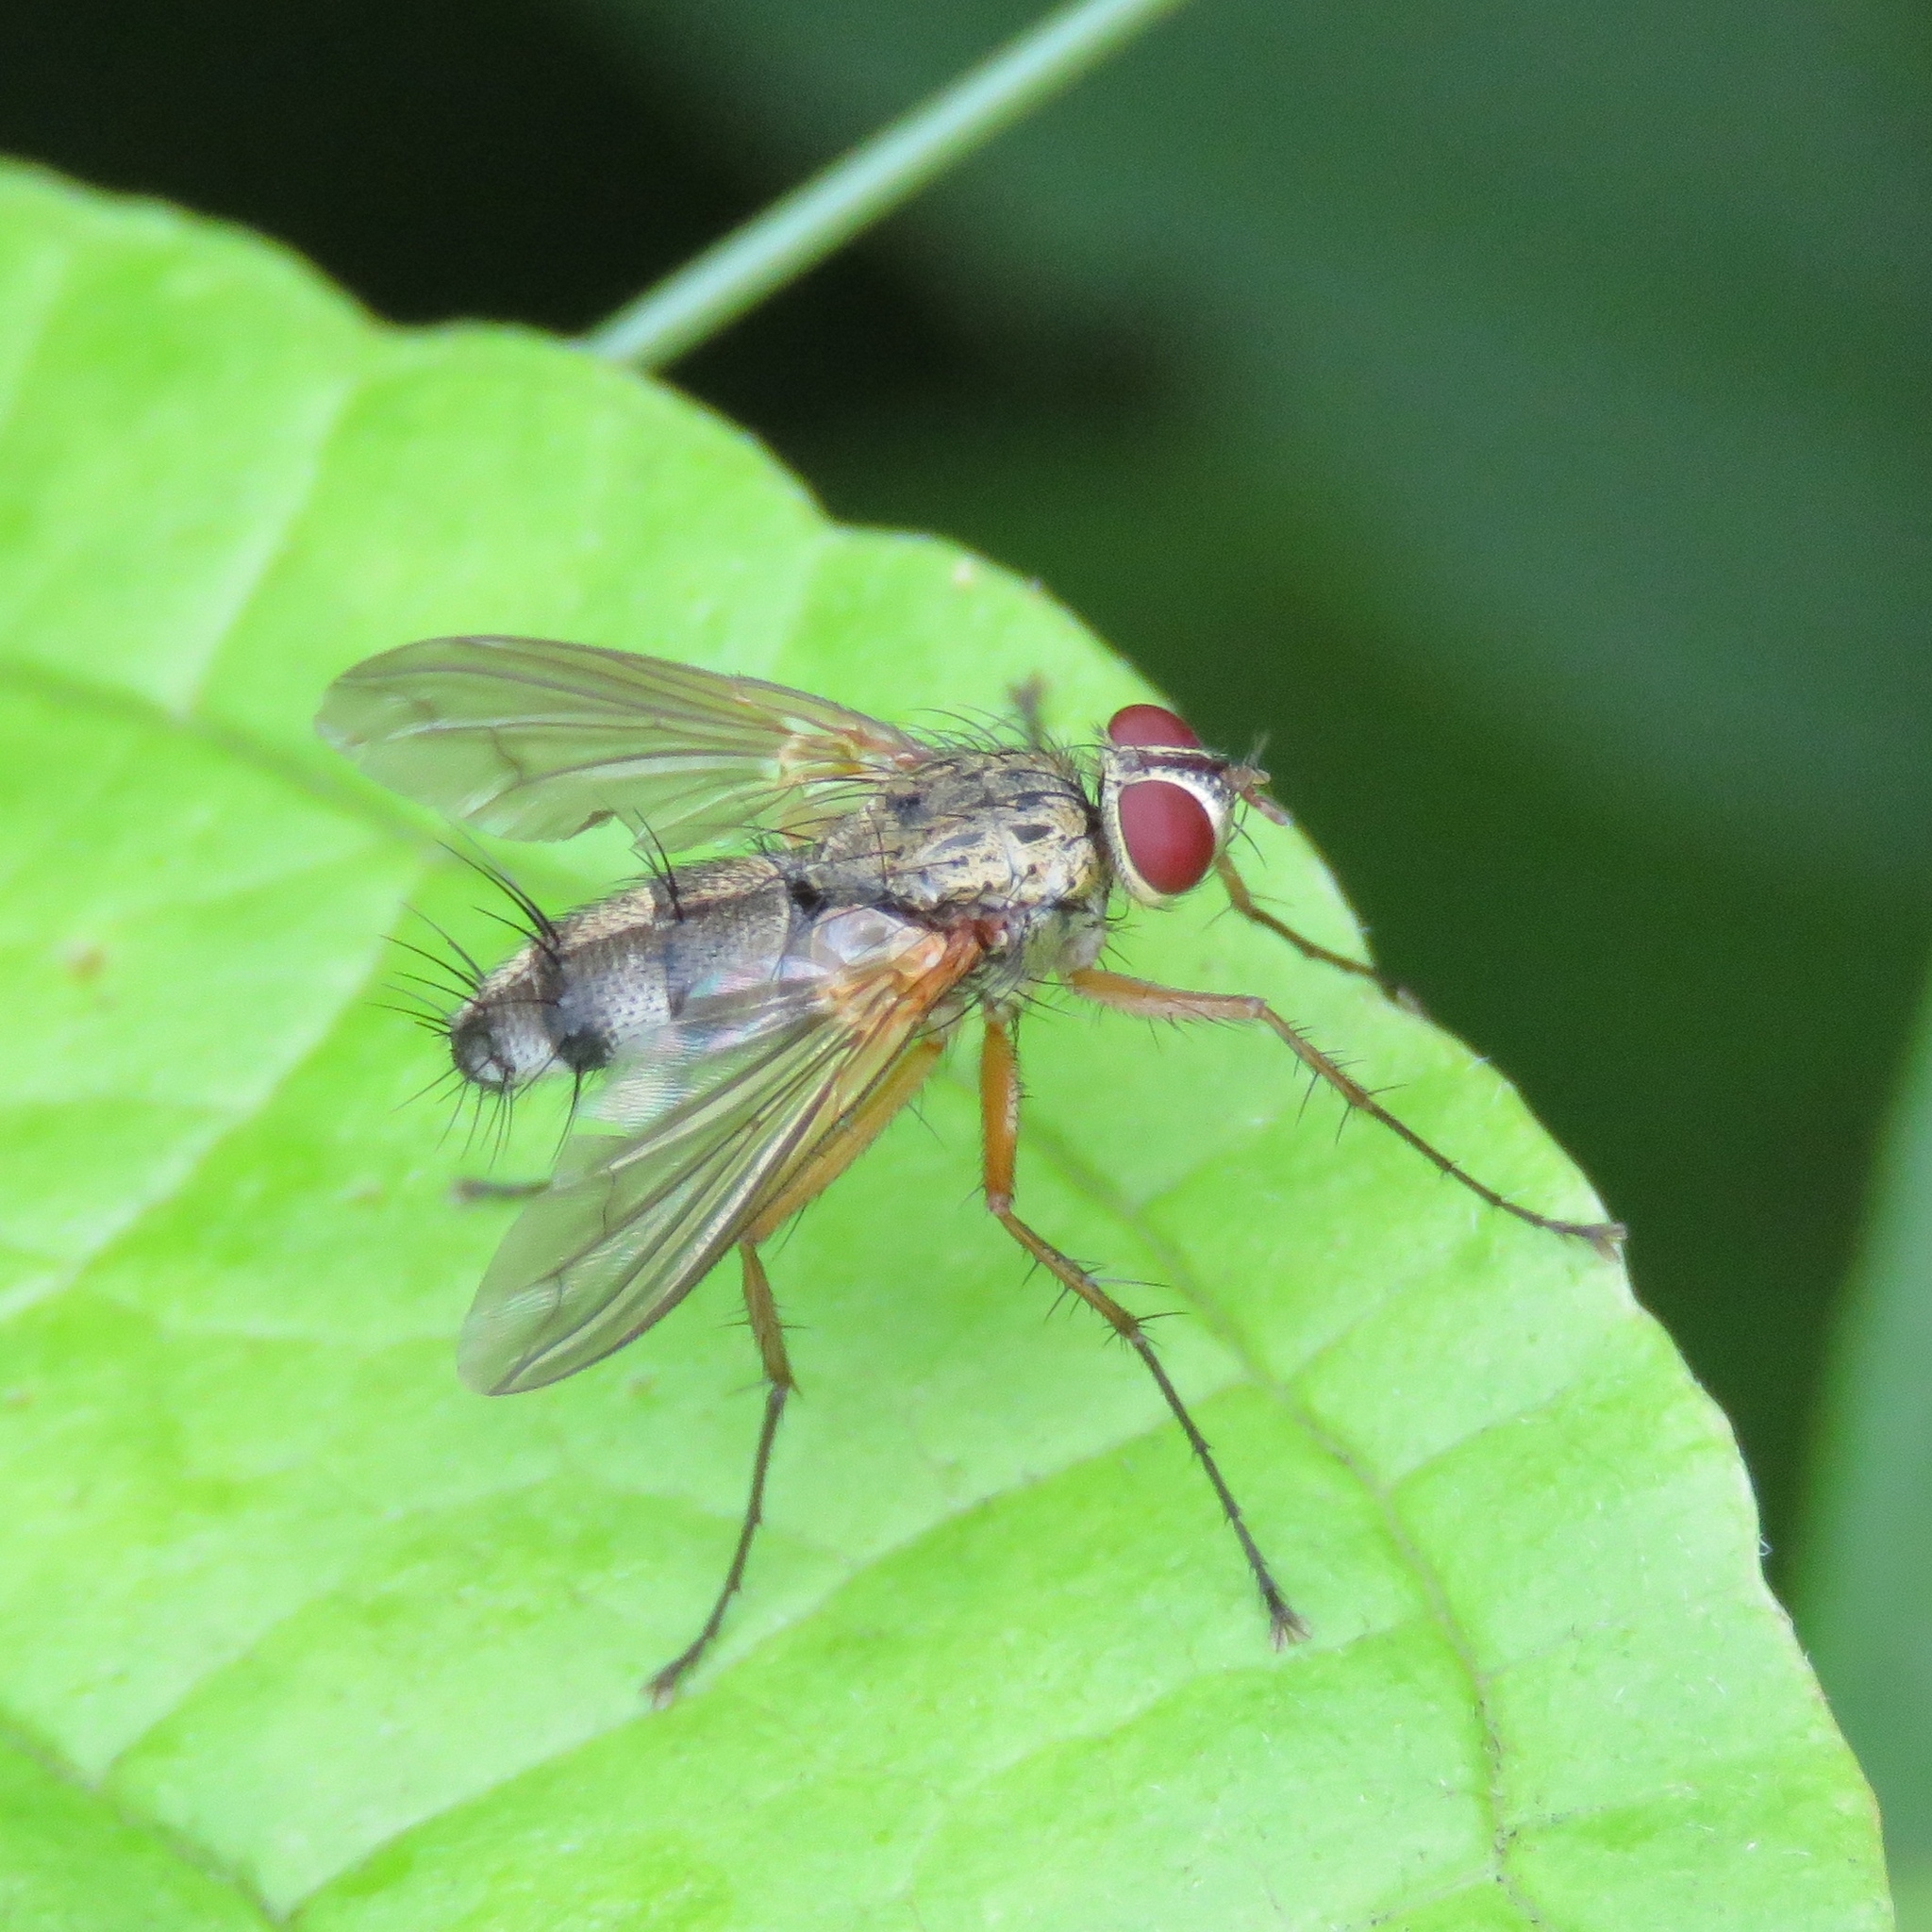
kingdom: Animalia
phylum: Arthropoda
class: Insecta
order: Diptera
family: Tachinidae
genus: Dexiosoma
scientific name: Dexiosoma caninum
